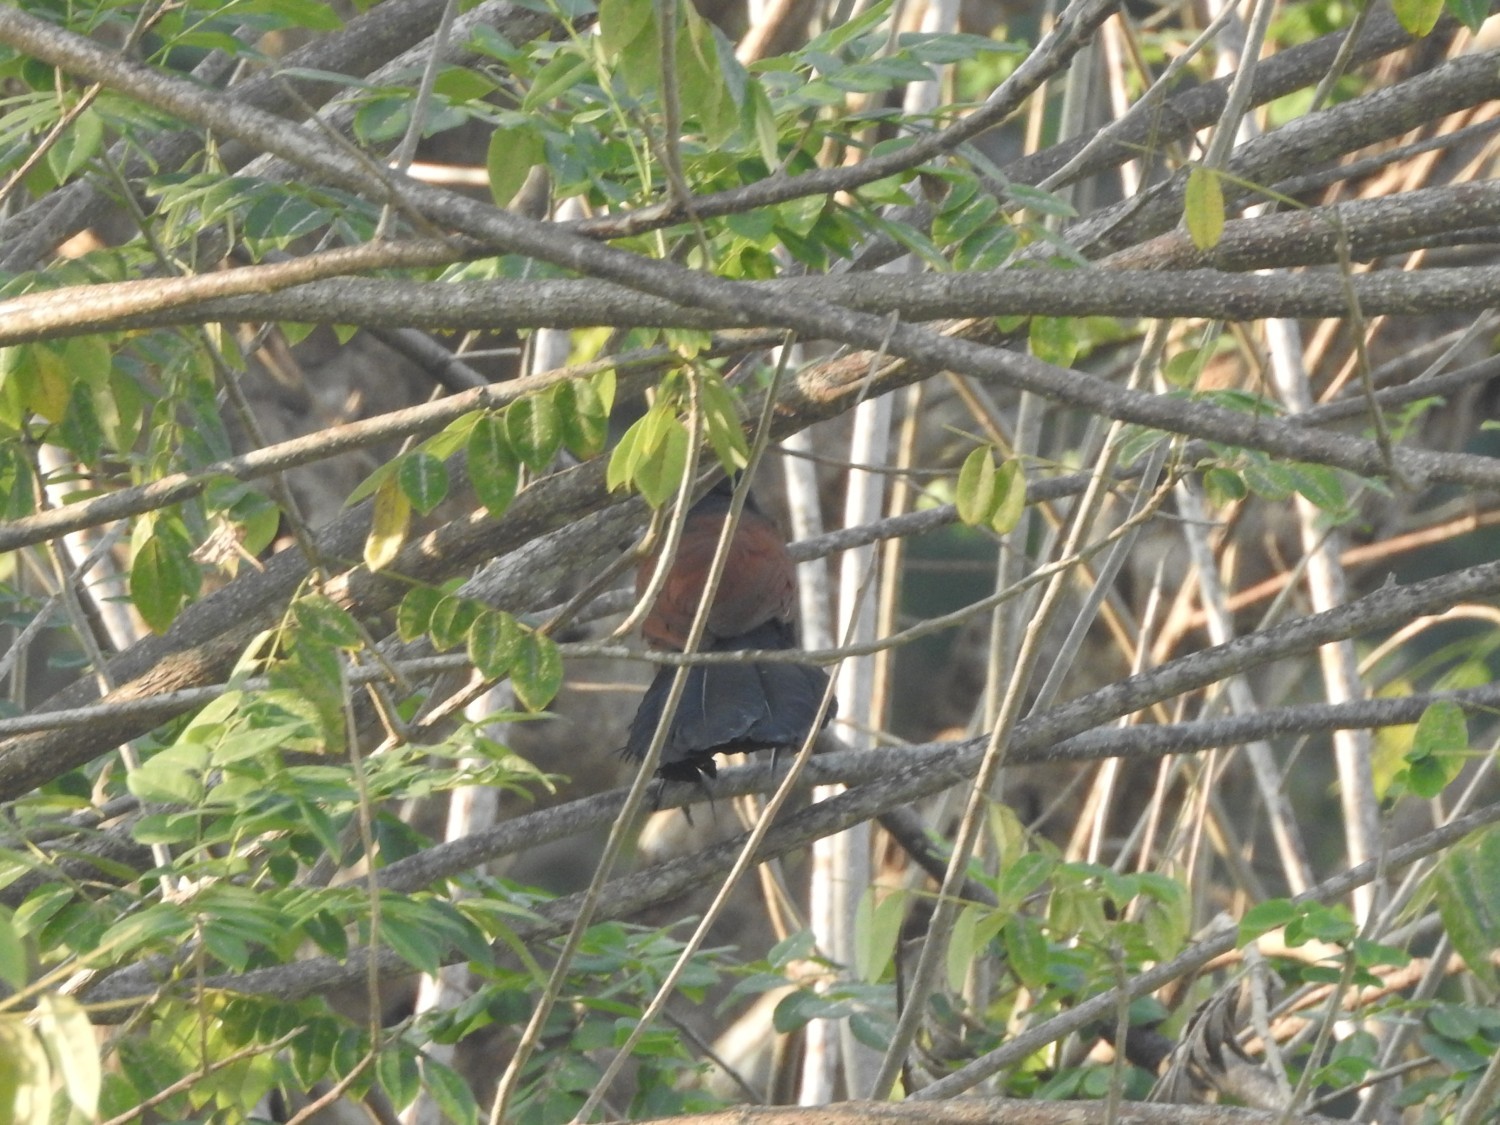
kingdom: Animalia
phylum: Chordata
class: Aves
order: Cuculiformes
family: Cuculidae
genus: Centropus
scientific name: Centropus sinensis
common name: Greater coucal
